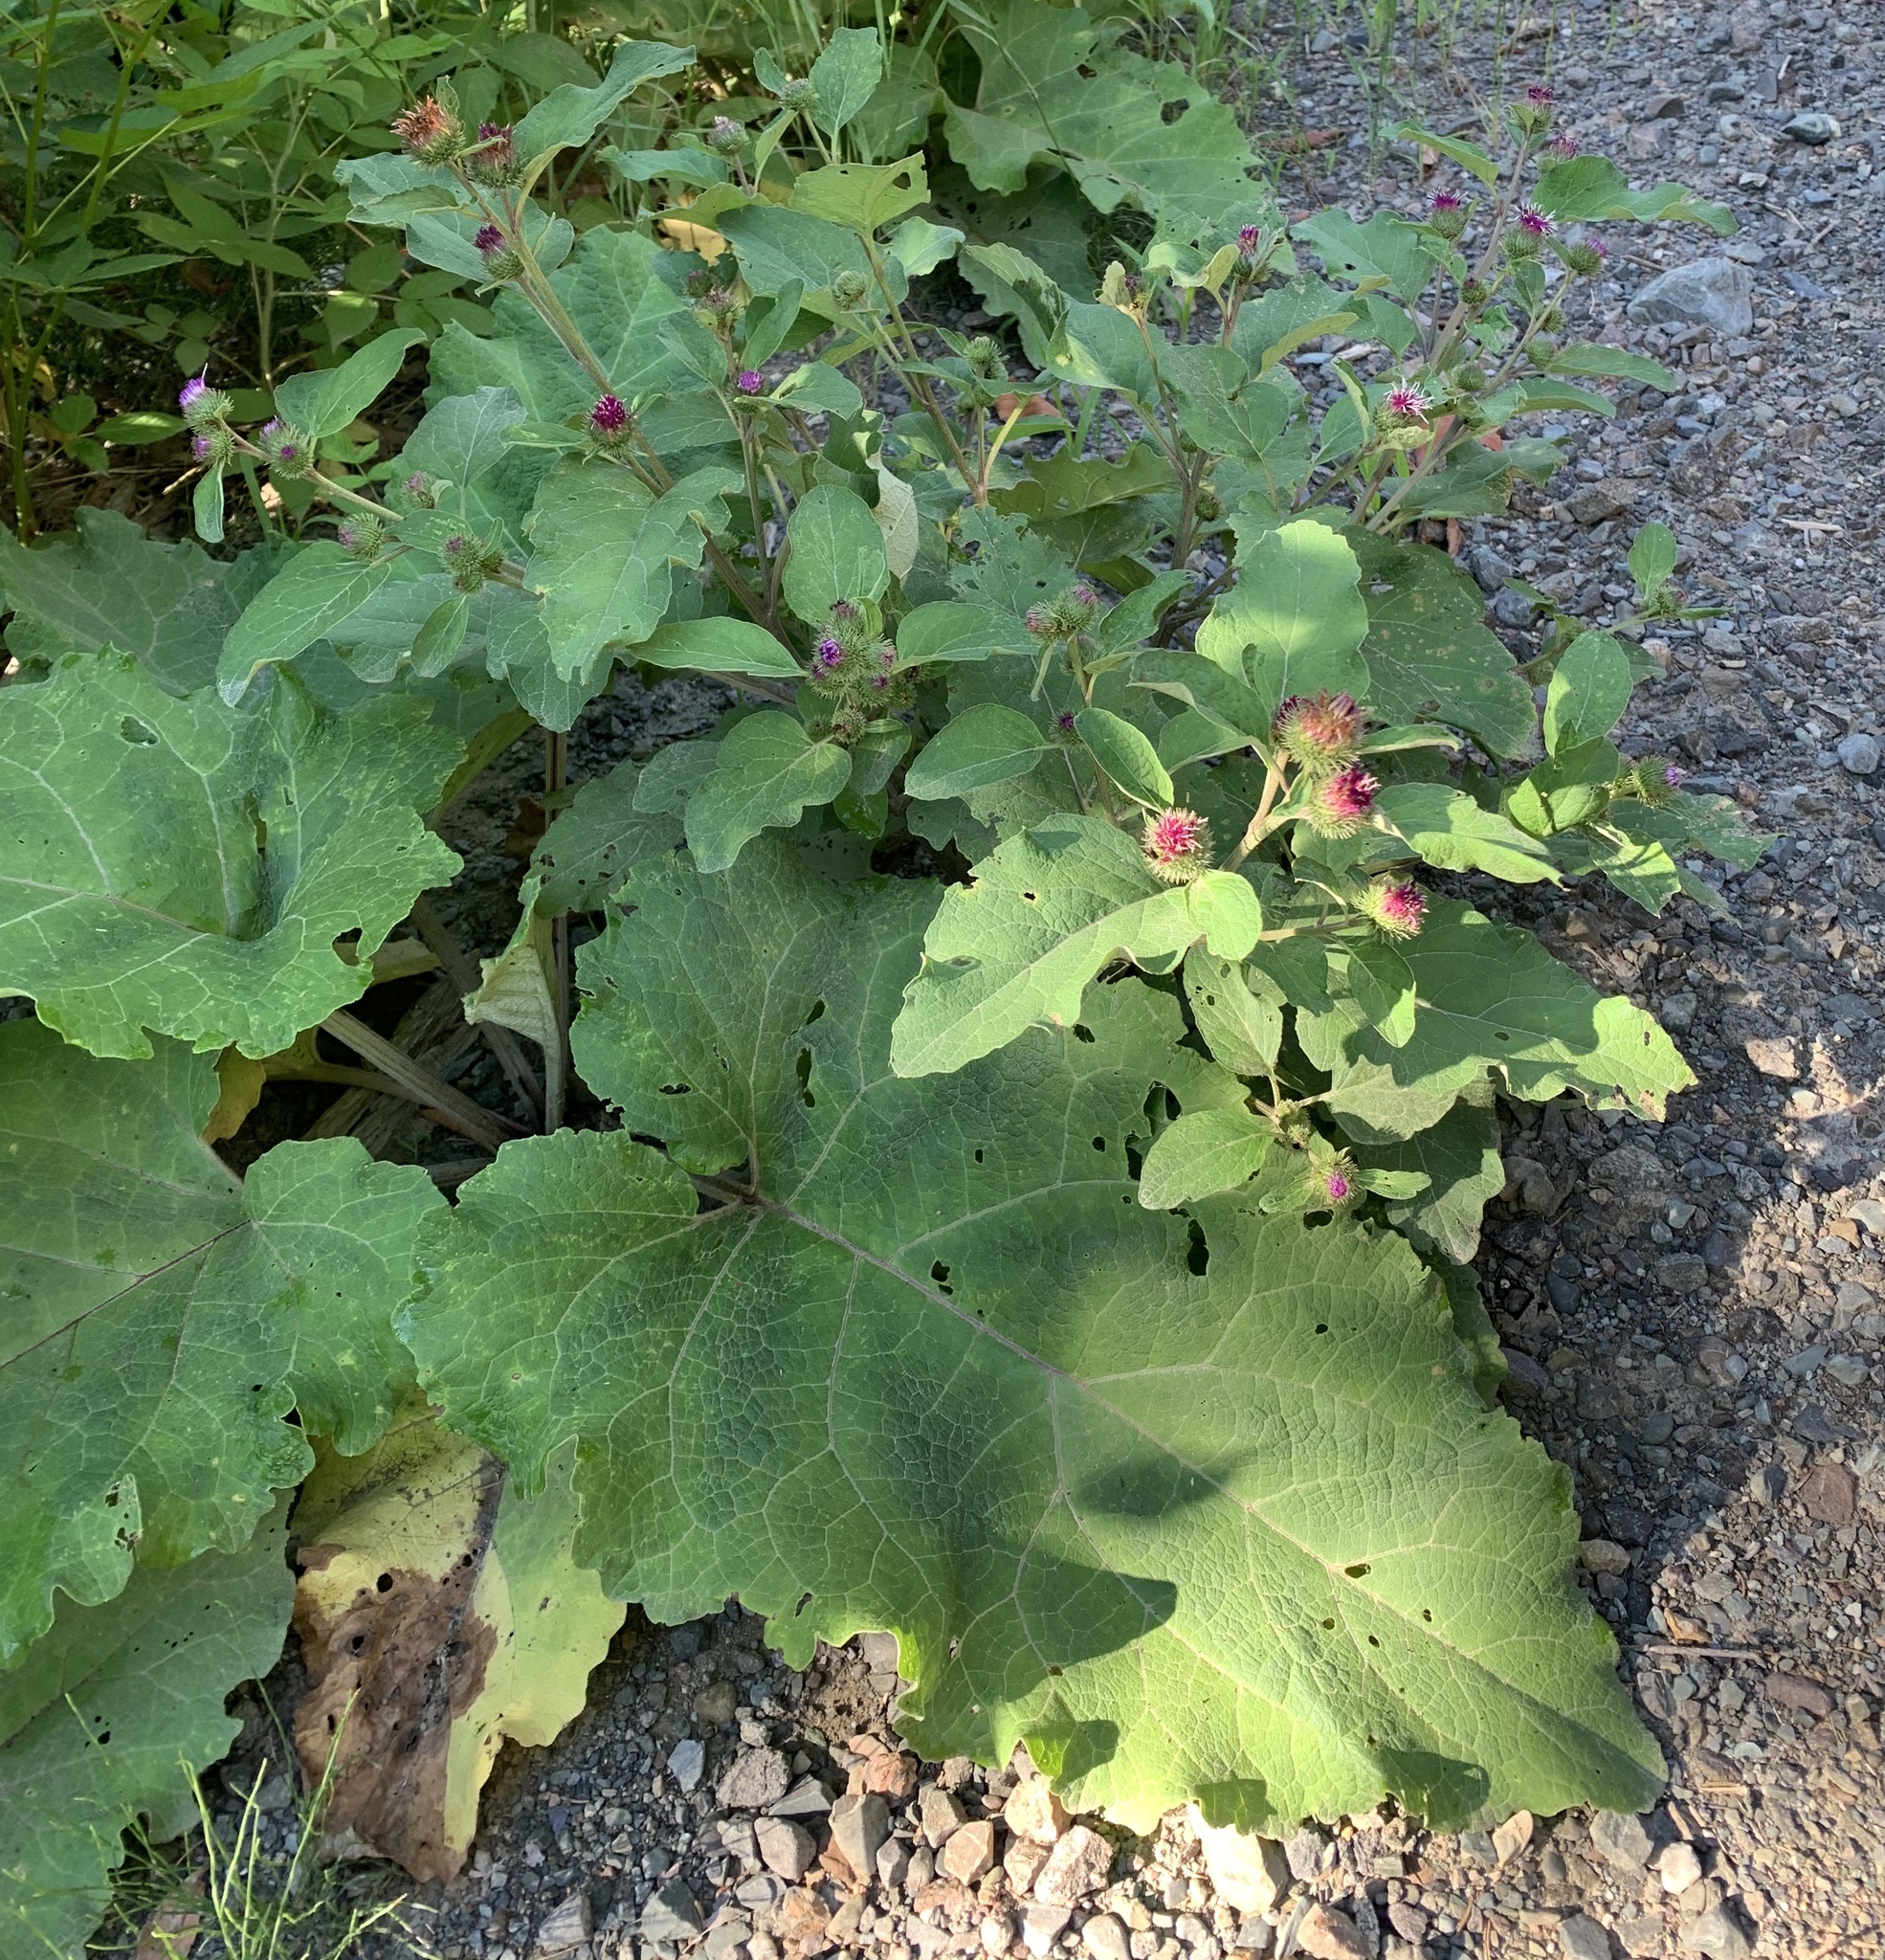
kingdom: Plantae
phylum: Tracheophyta
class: Magnoliopsida
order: Asterales
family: Asteraceae
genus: Arctium
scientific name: Arctium minus
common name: Lesser burdock
